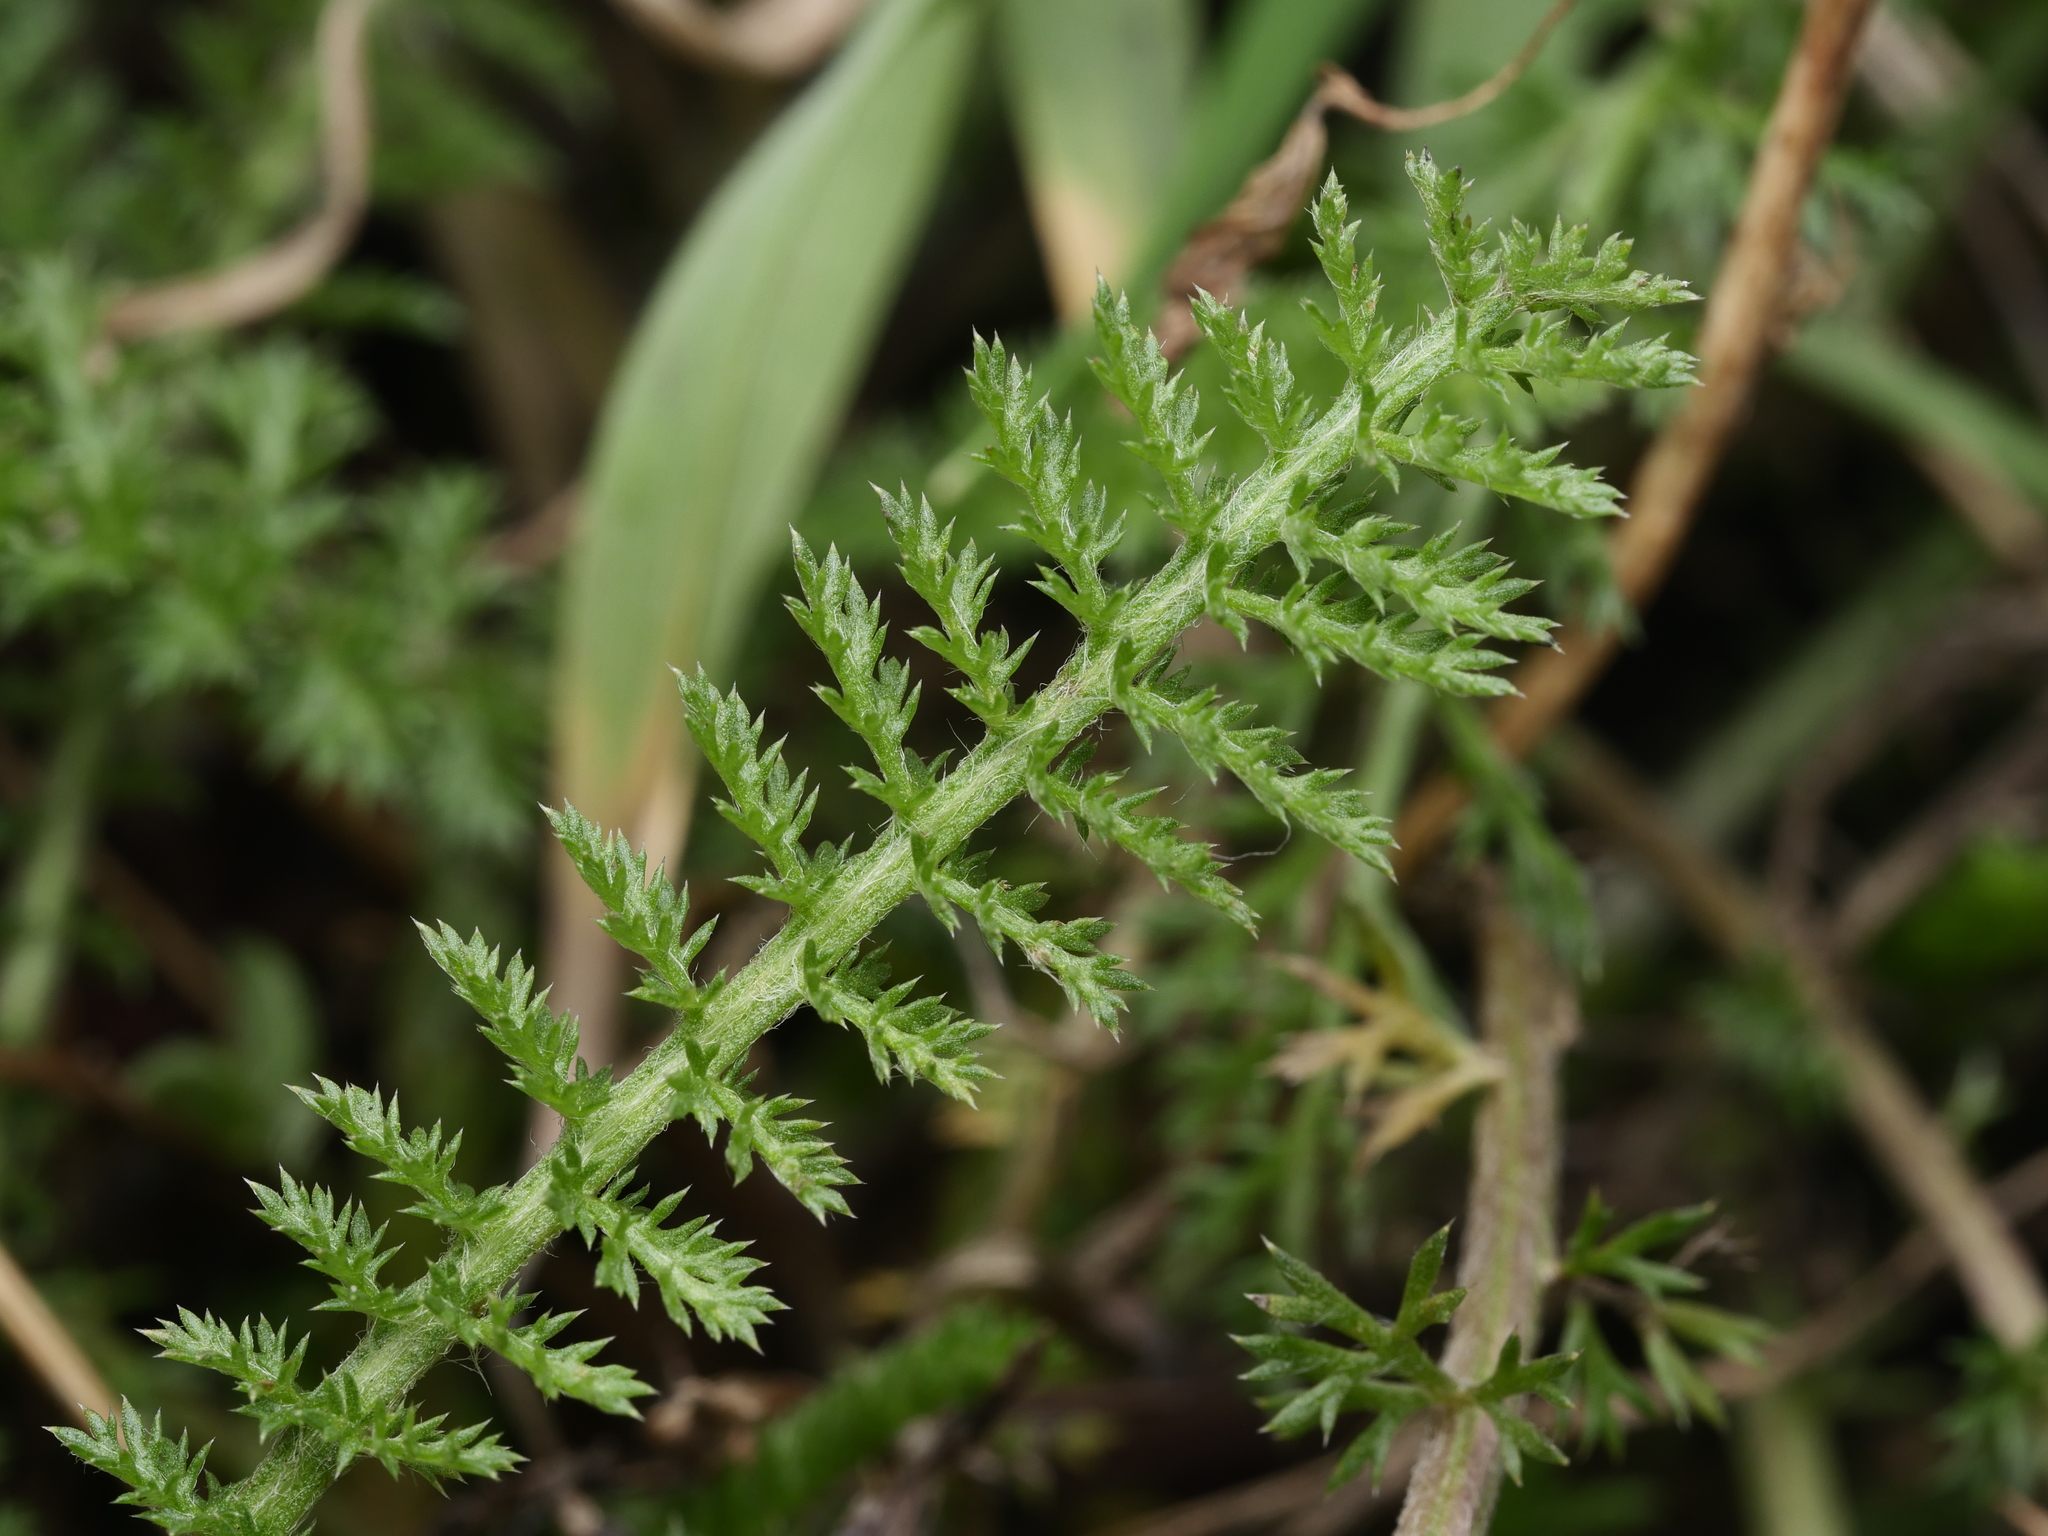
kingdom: Plantae
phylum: Tracheophyta
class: Magnoliopsida
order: Asterales
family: Asteraceae
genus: Achillea
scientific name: Achillea millefolium
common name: Yarrow
